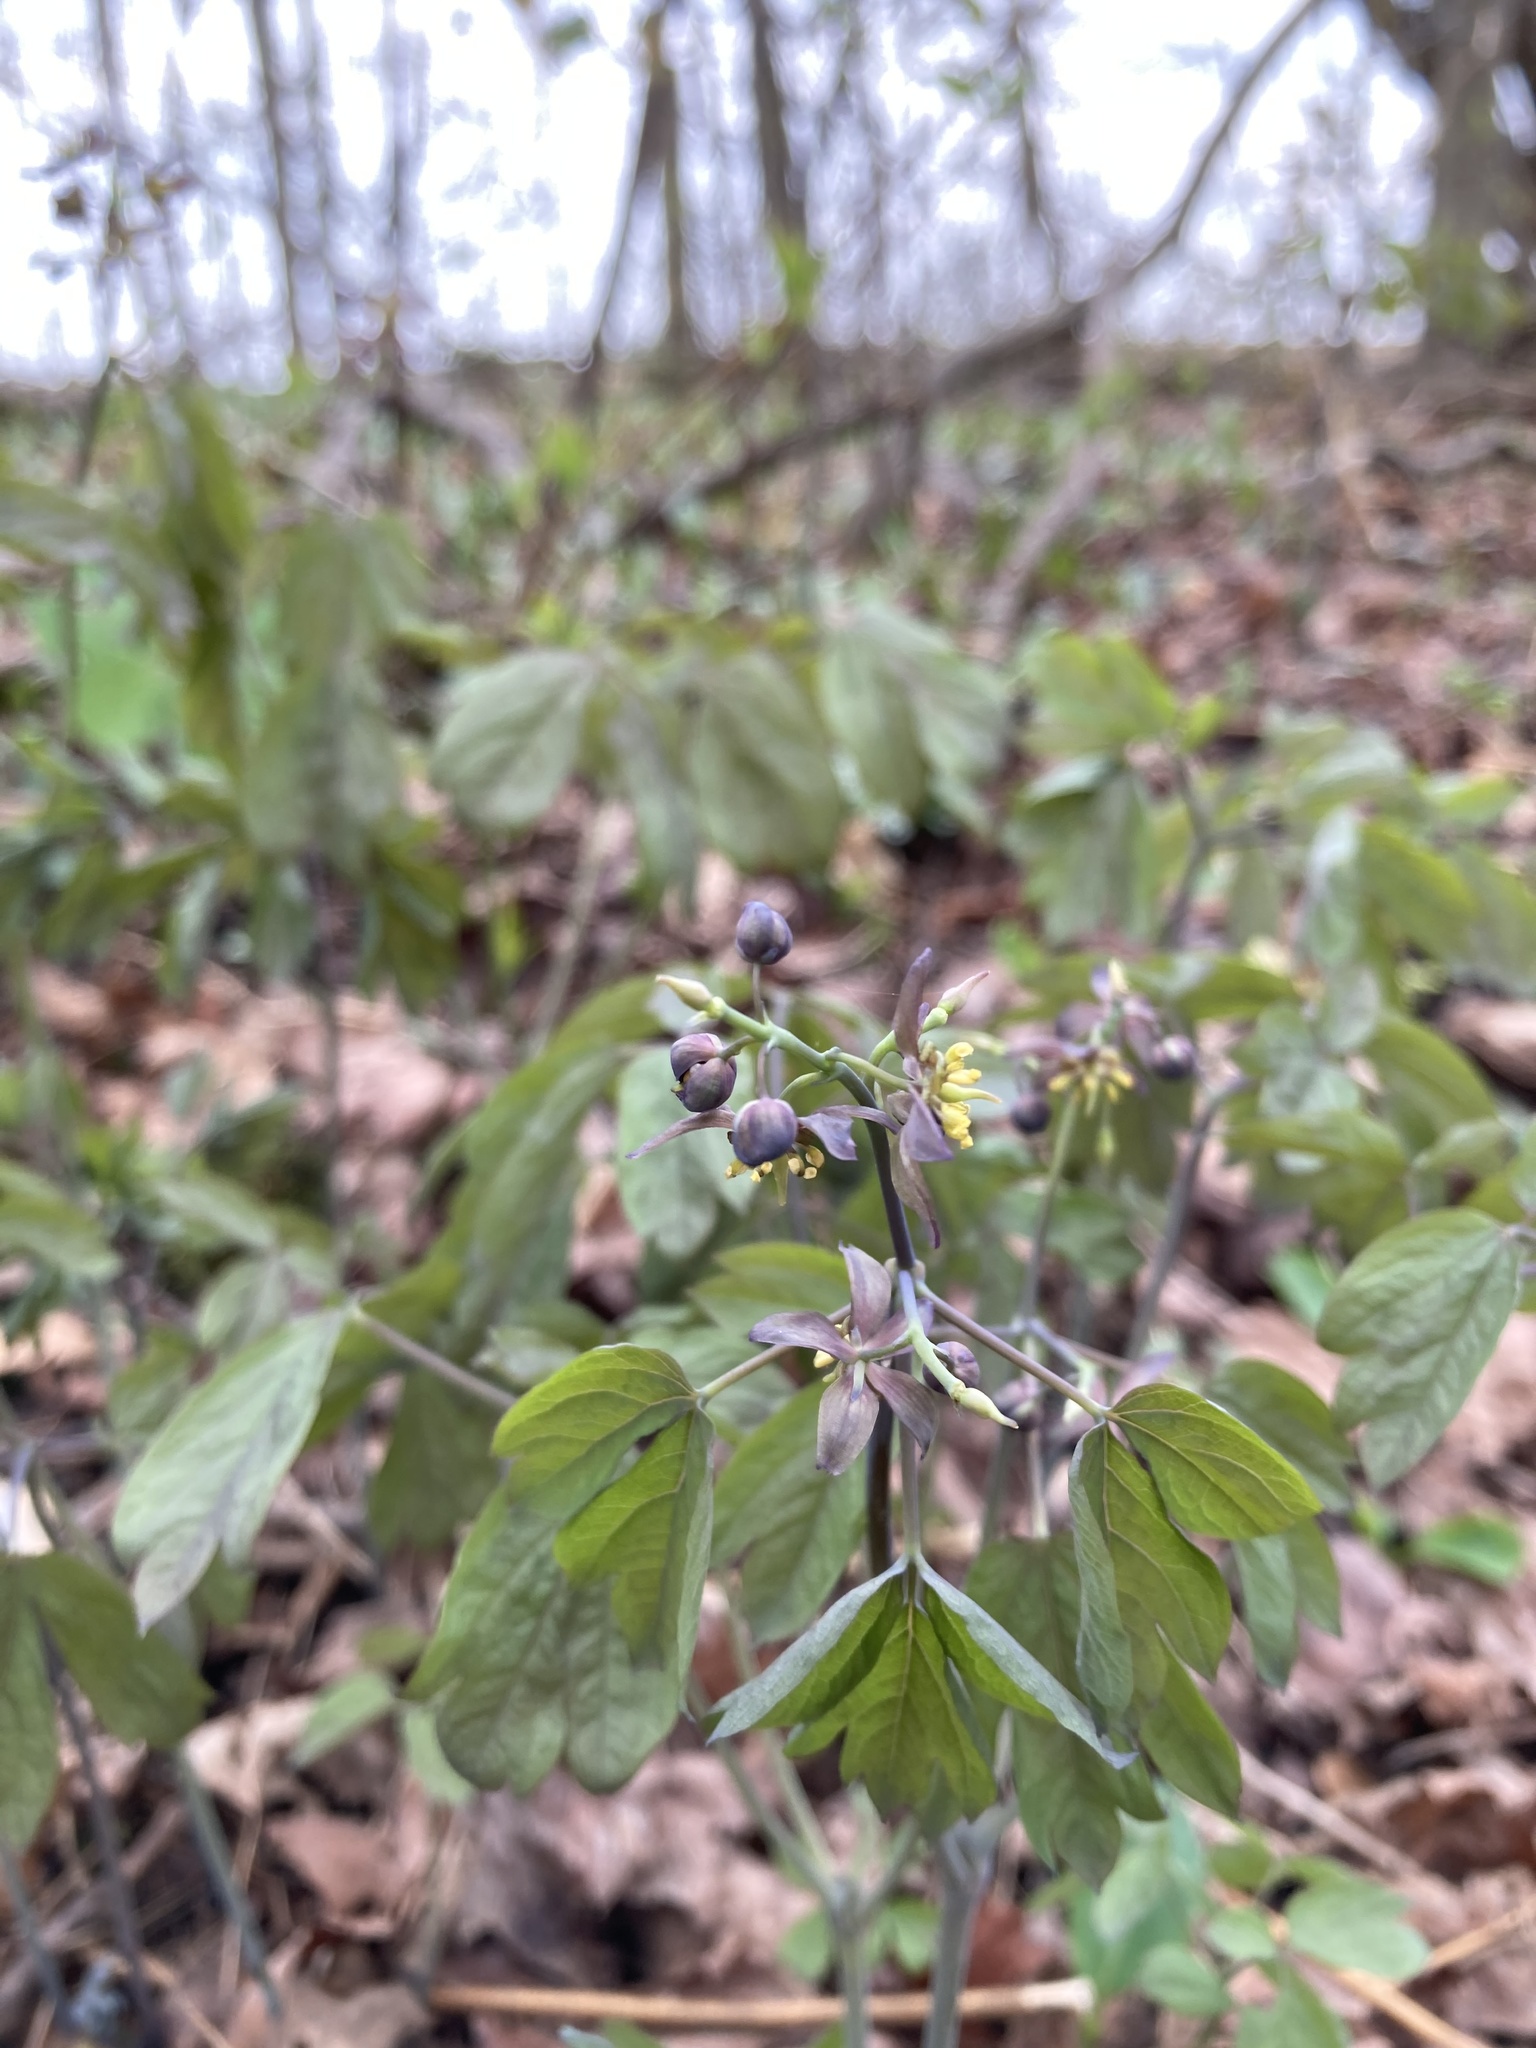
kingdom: Plantae
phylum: Tracheophyta
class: Magnoliopsida
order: Ranunculales
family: Berberidaceae
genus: Caulophyllum
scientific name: Caulophyllum giganteum
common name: Blue cohosh
